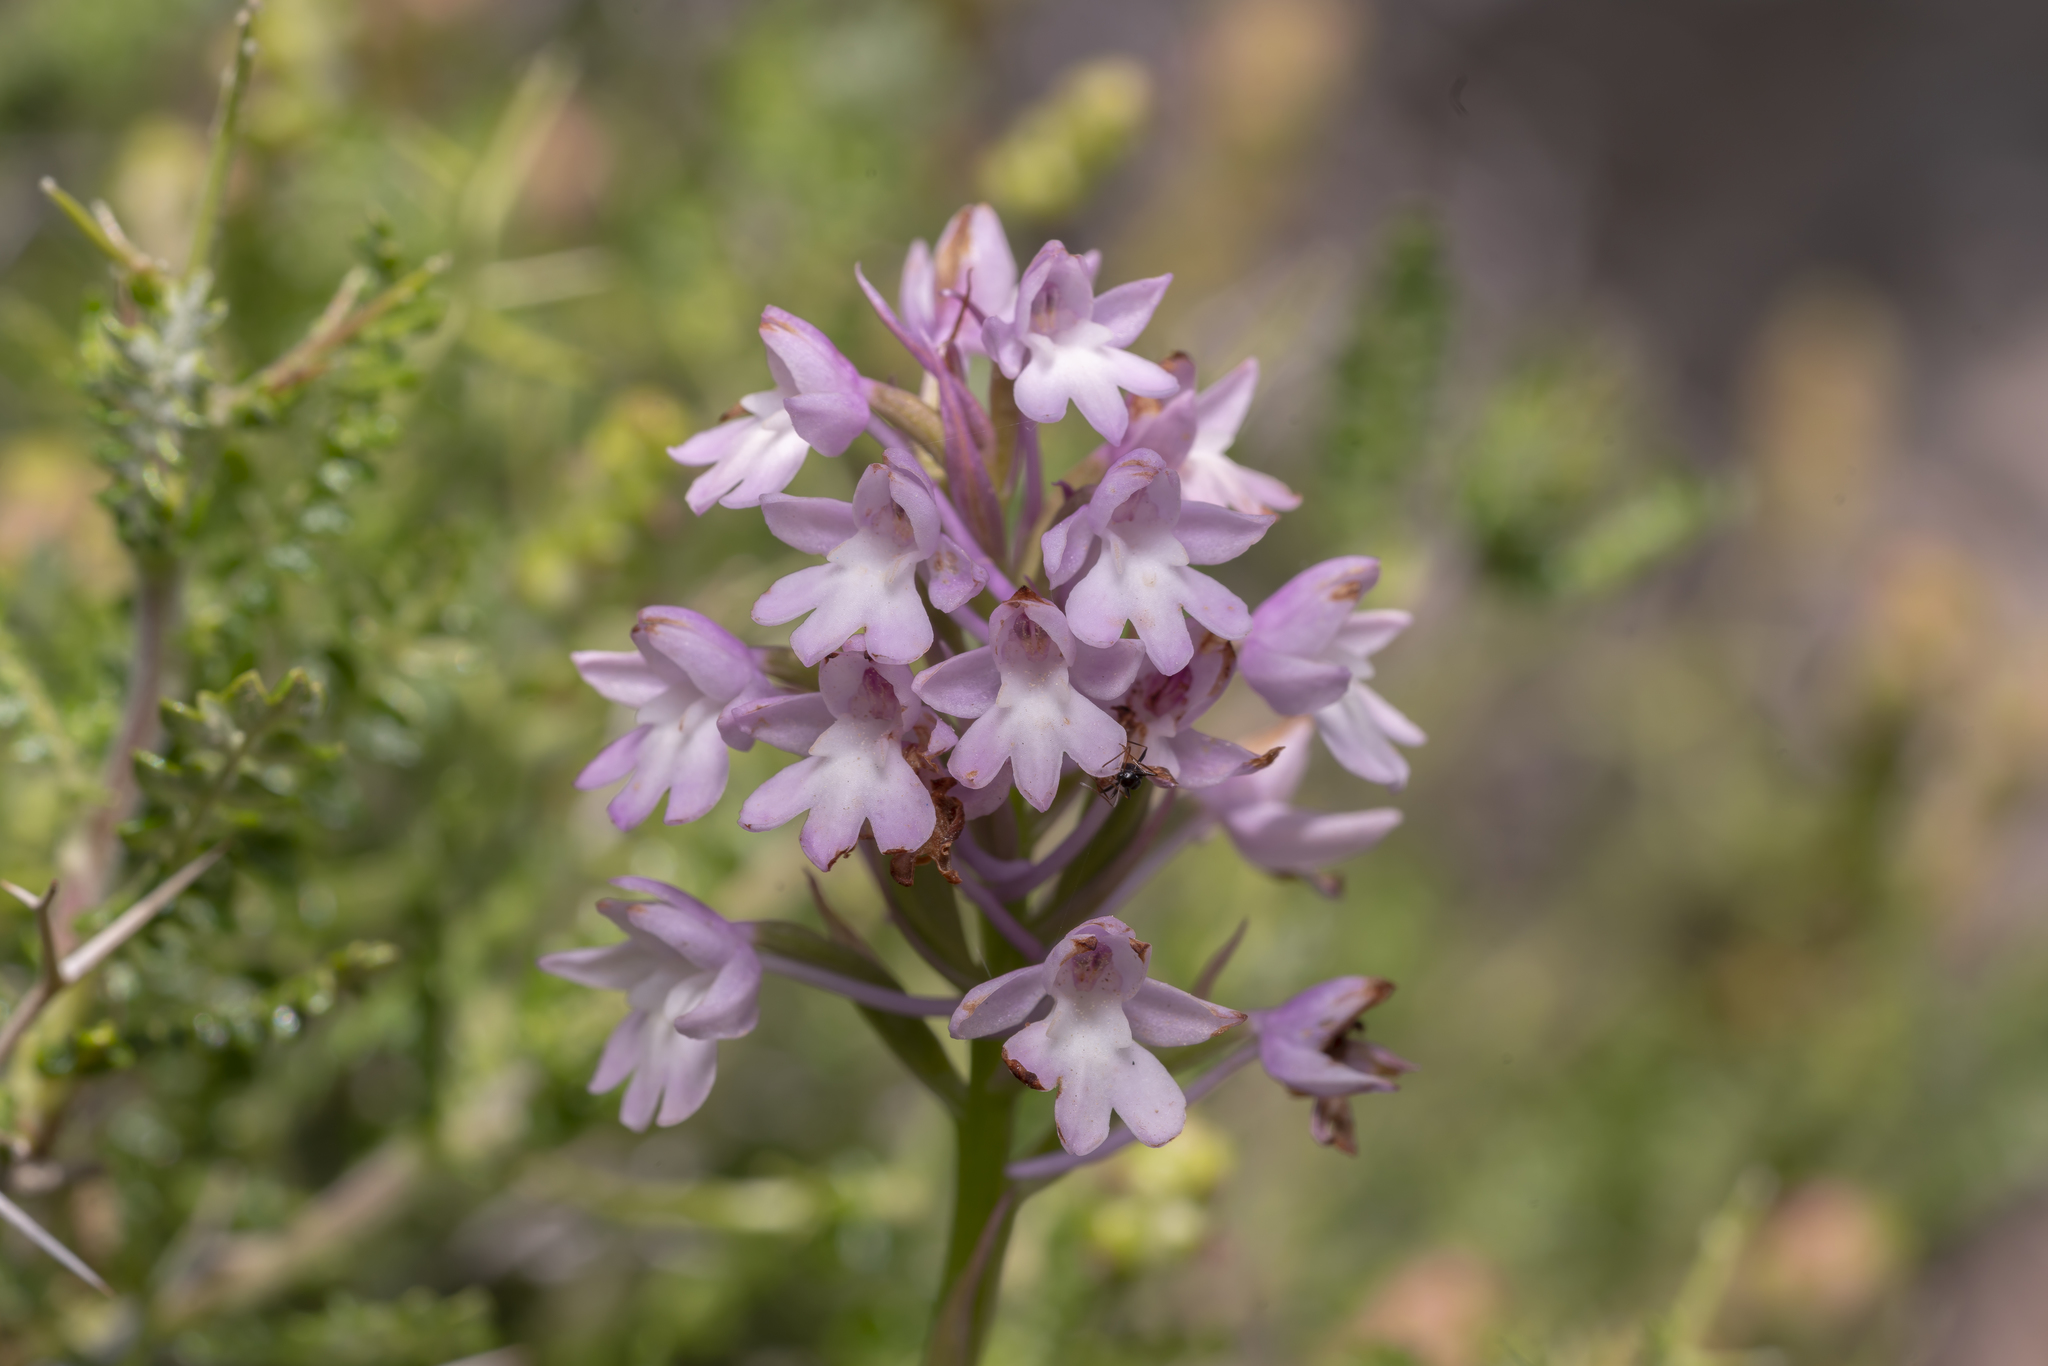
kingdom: Plantae
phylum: Tracheophyta
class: Liliopsida
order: Asparagales
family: Orchidaceae
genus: Anacamptis
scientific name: Anacamptis pyramidalis
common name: Pyramidal orchid
